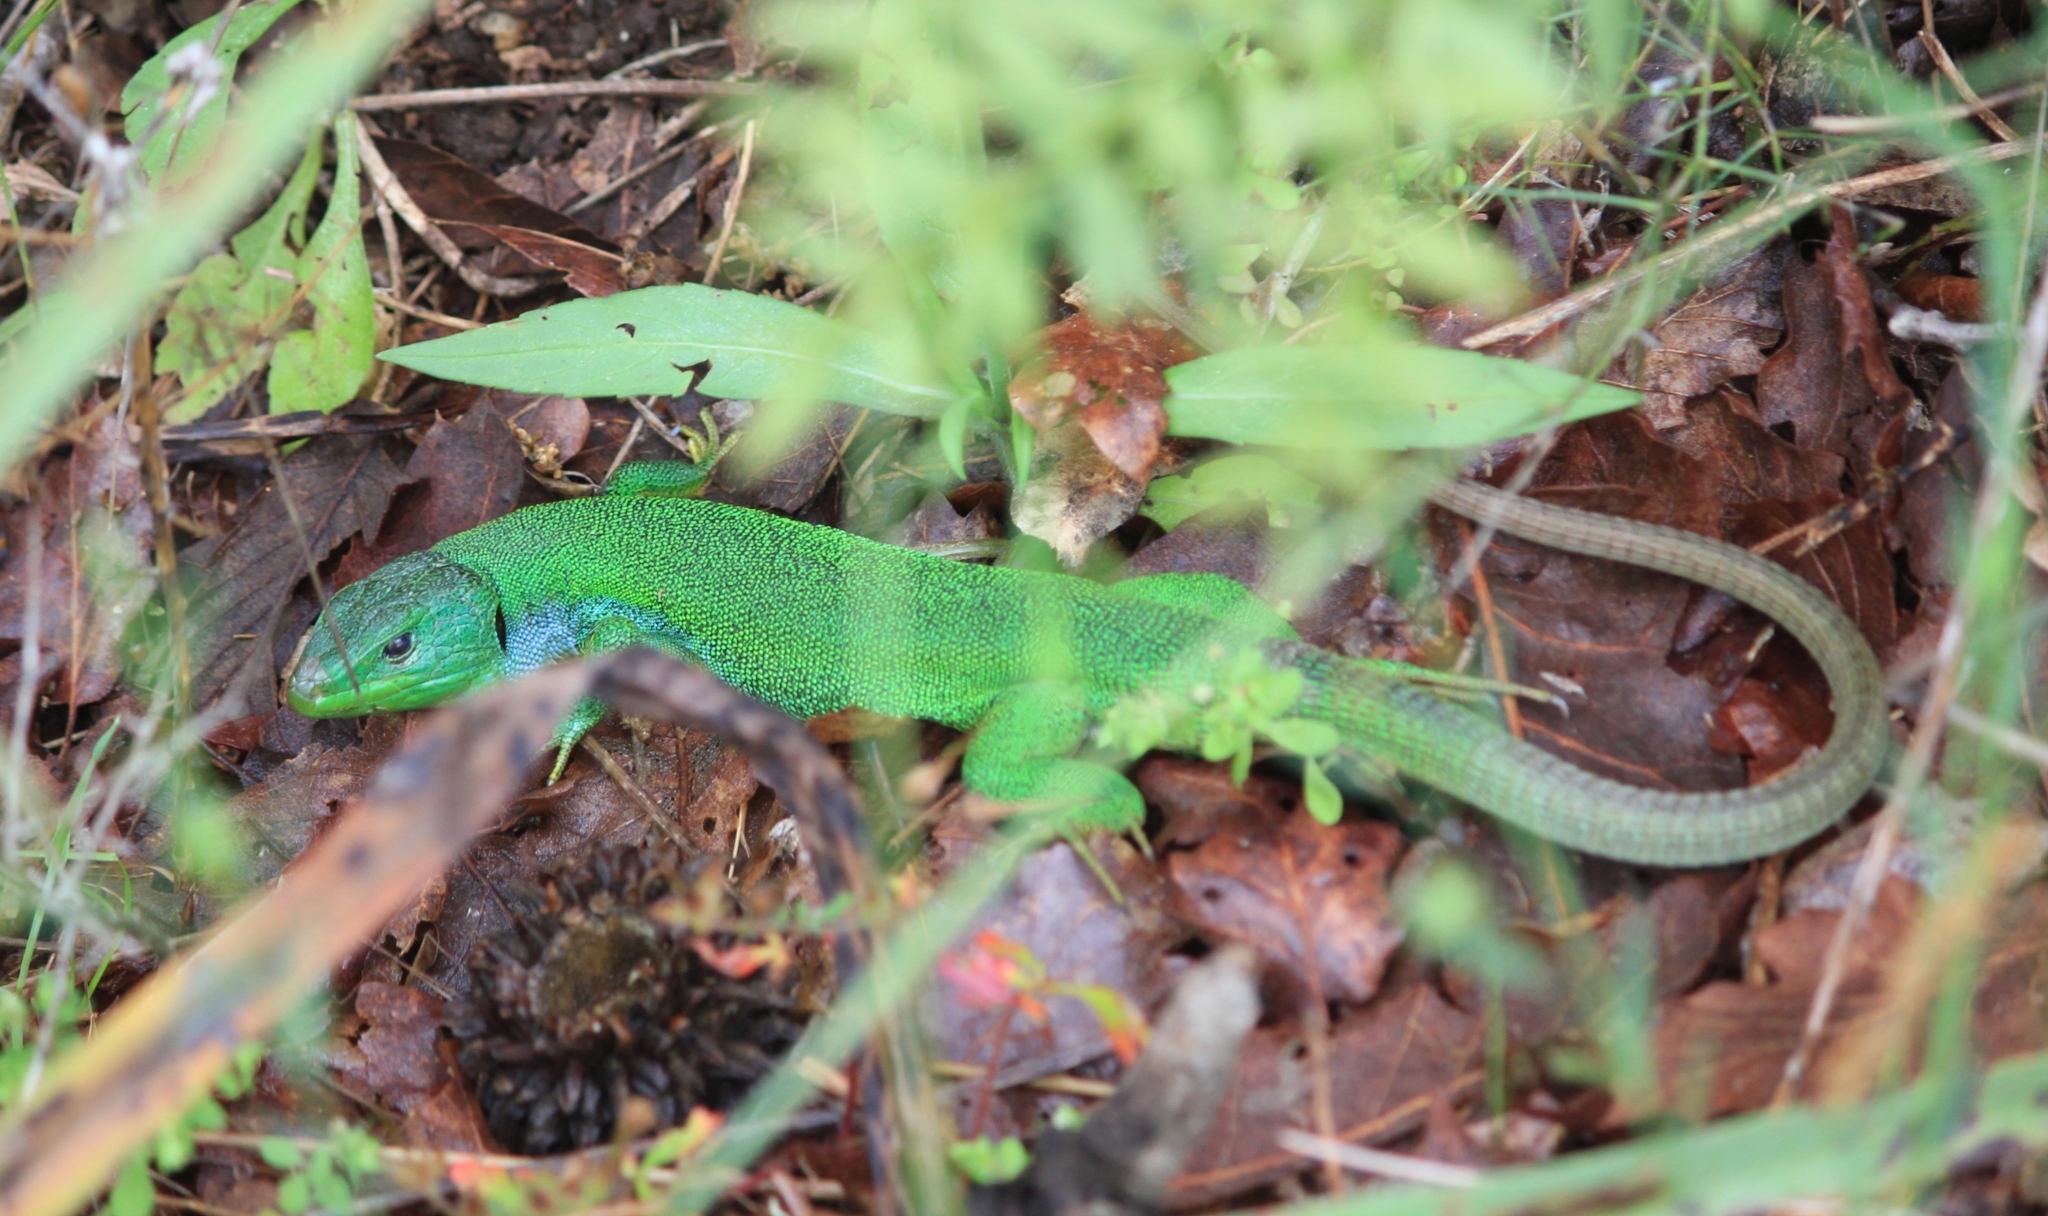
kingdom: Animalia
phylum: Chordata
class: Squamata
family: Lacertidae
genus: Lacerta
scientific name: Lacerta trilineata
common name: Balkan green lizard
